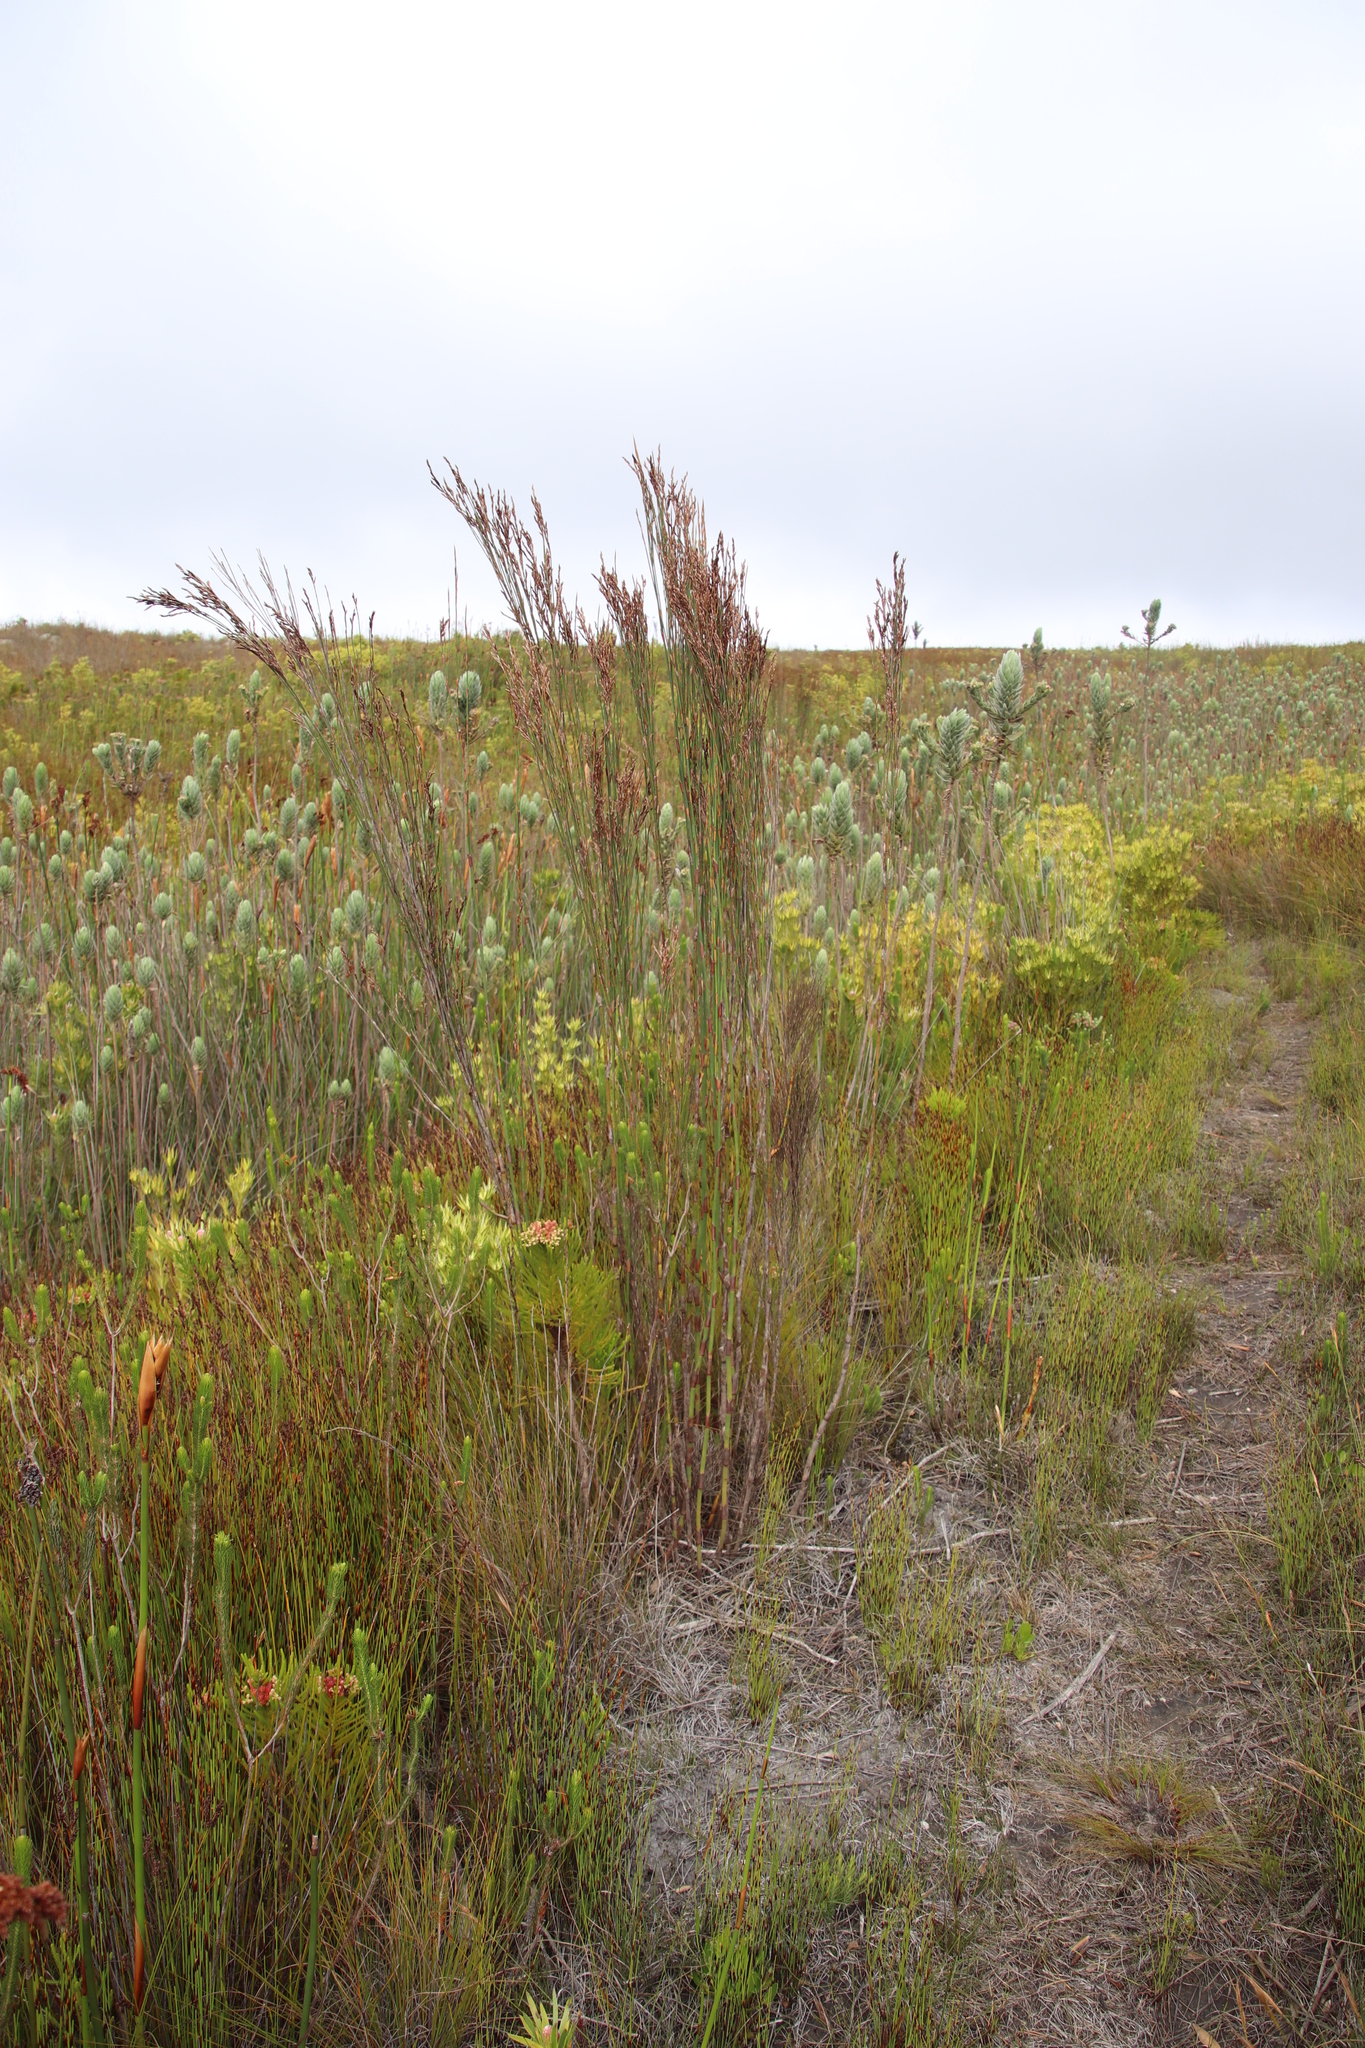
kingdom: Plantae
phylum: Tracheophyta
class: Liliopsida
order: Poales
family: Restionaceae
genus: Restio
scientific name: Restio dispar
